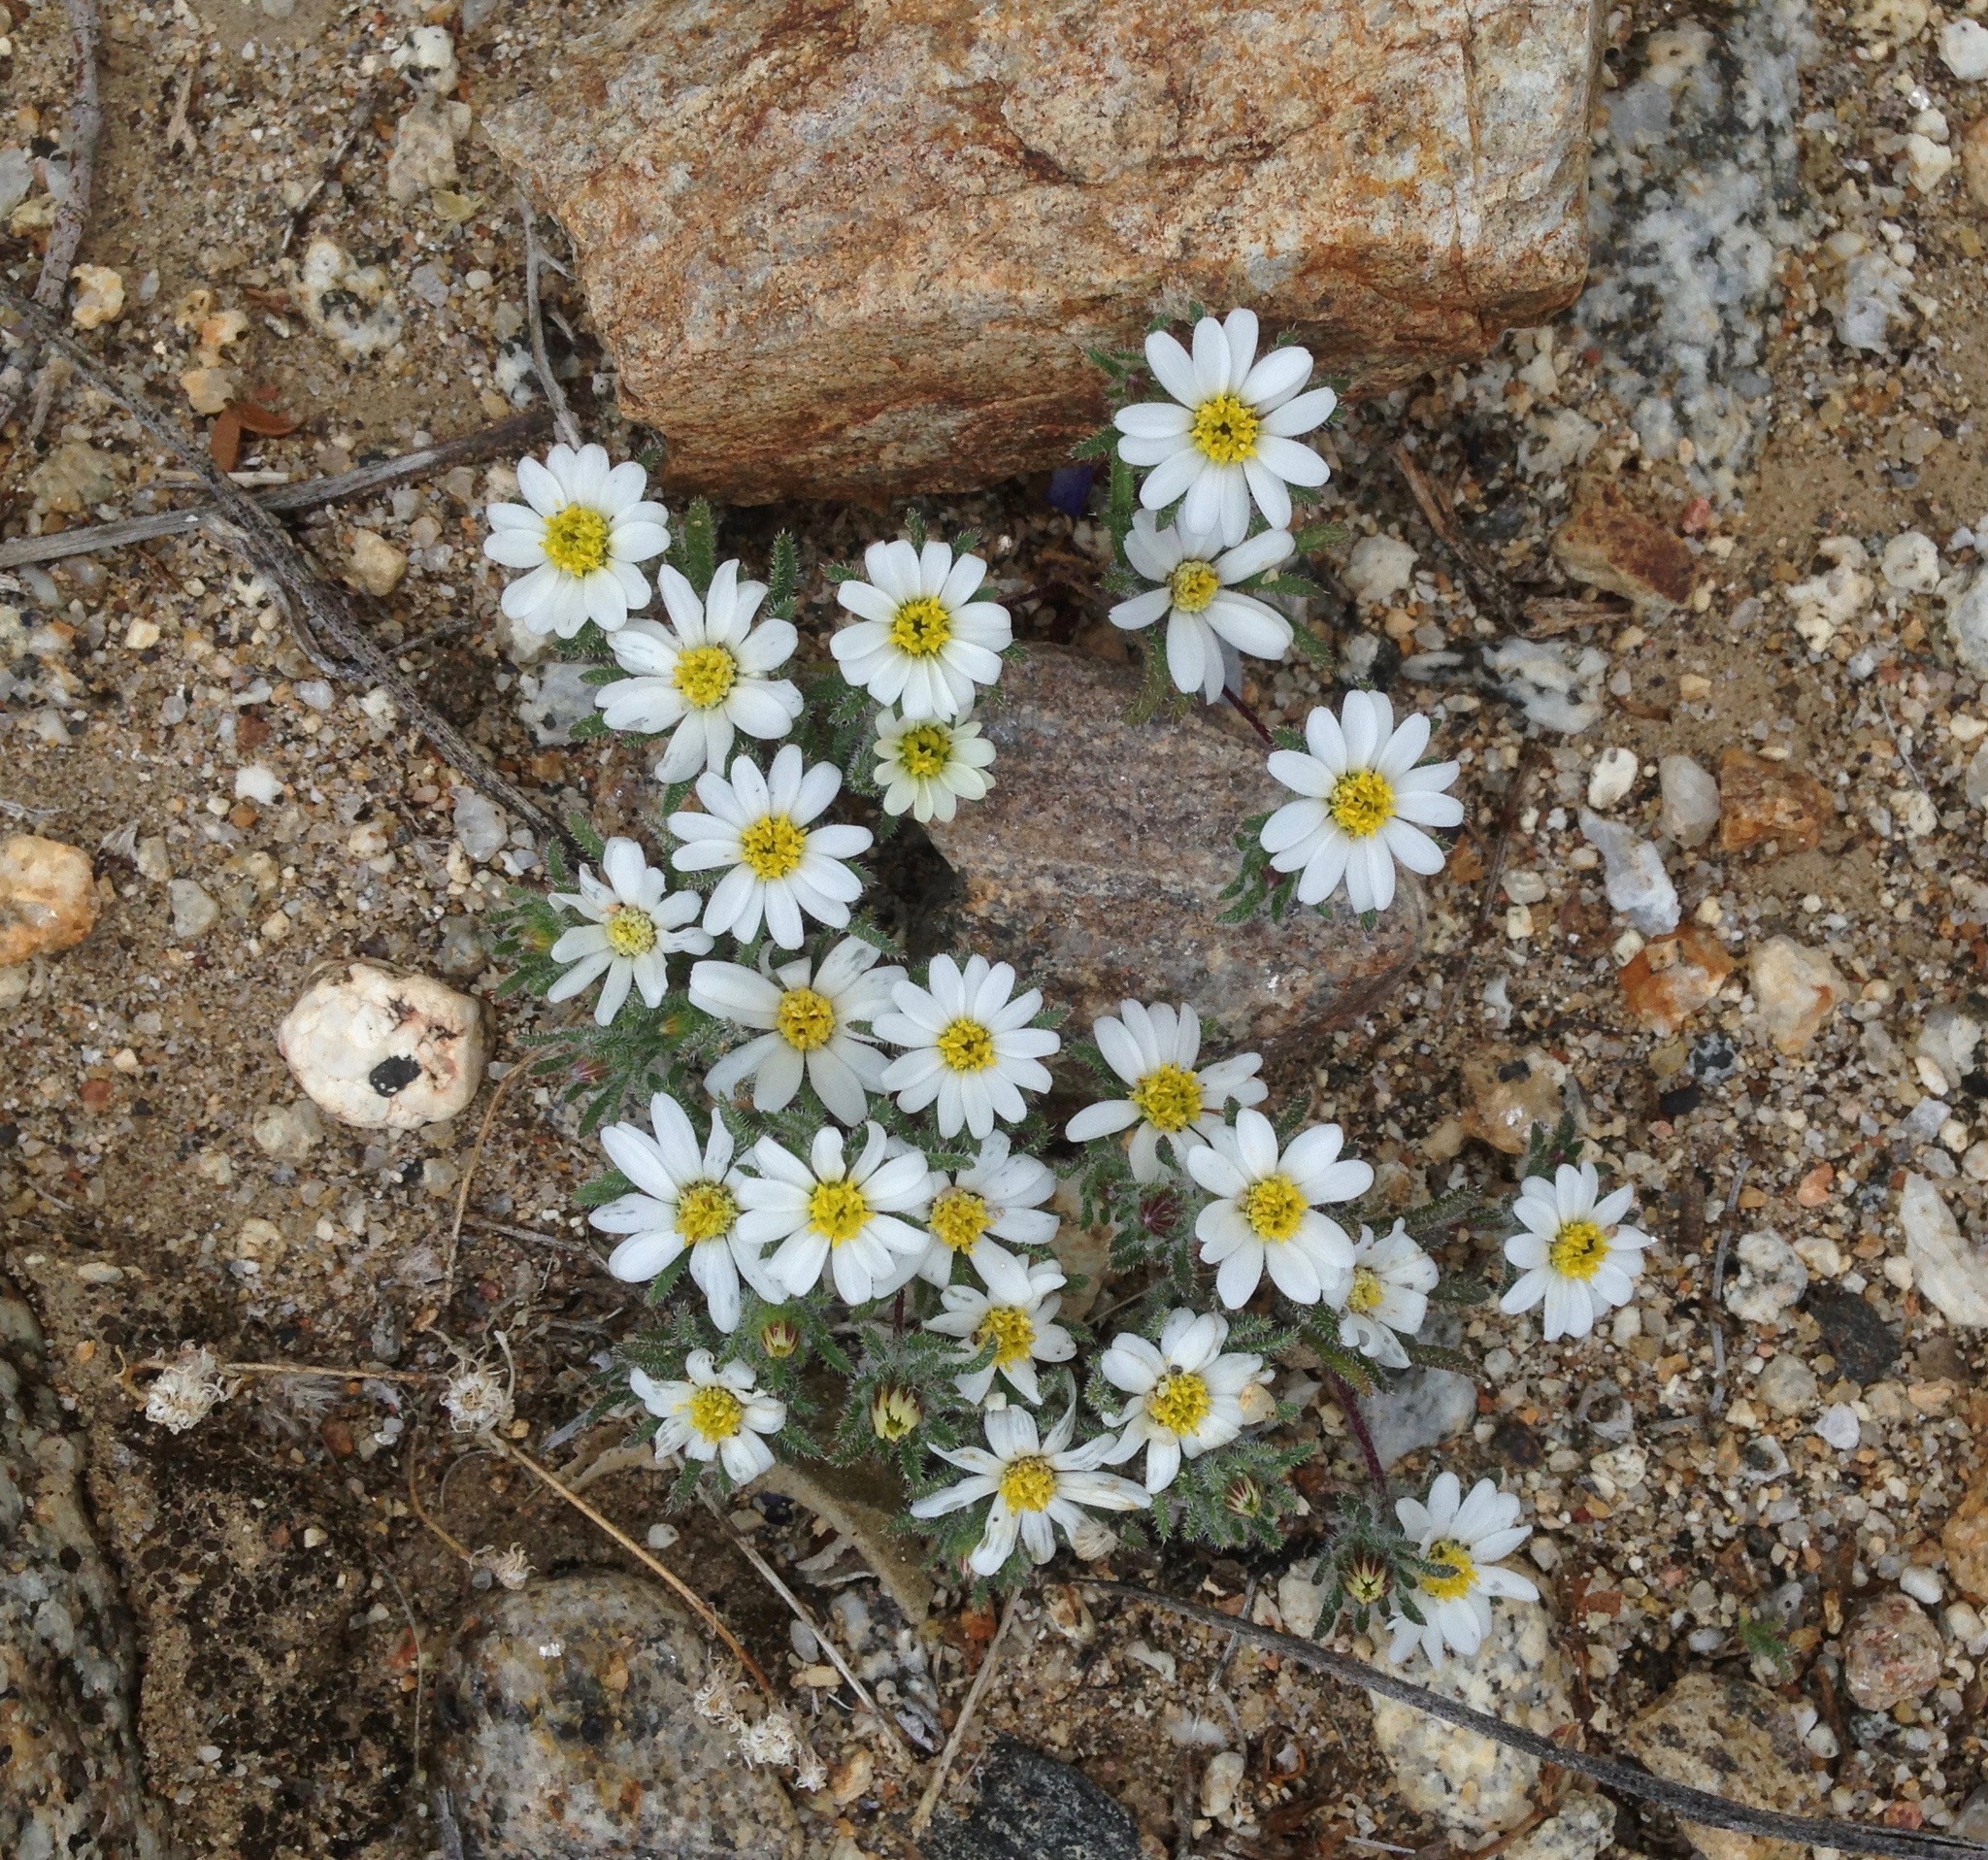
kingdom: Plantae
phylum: Tracheophyta
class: Magnoliopsida
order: Asterales
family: Asteraceae
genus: Monoptilon
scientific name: Monoptilon bellioides
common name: Bristly desertstar
